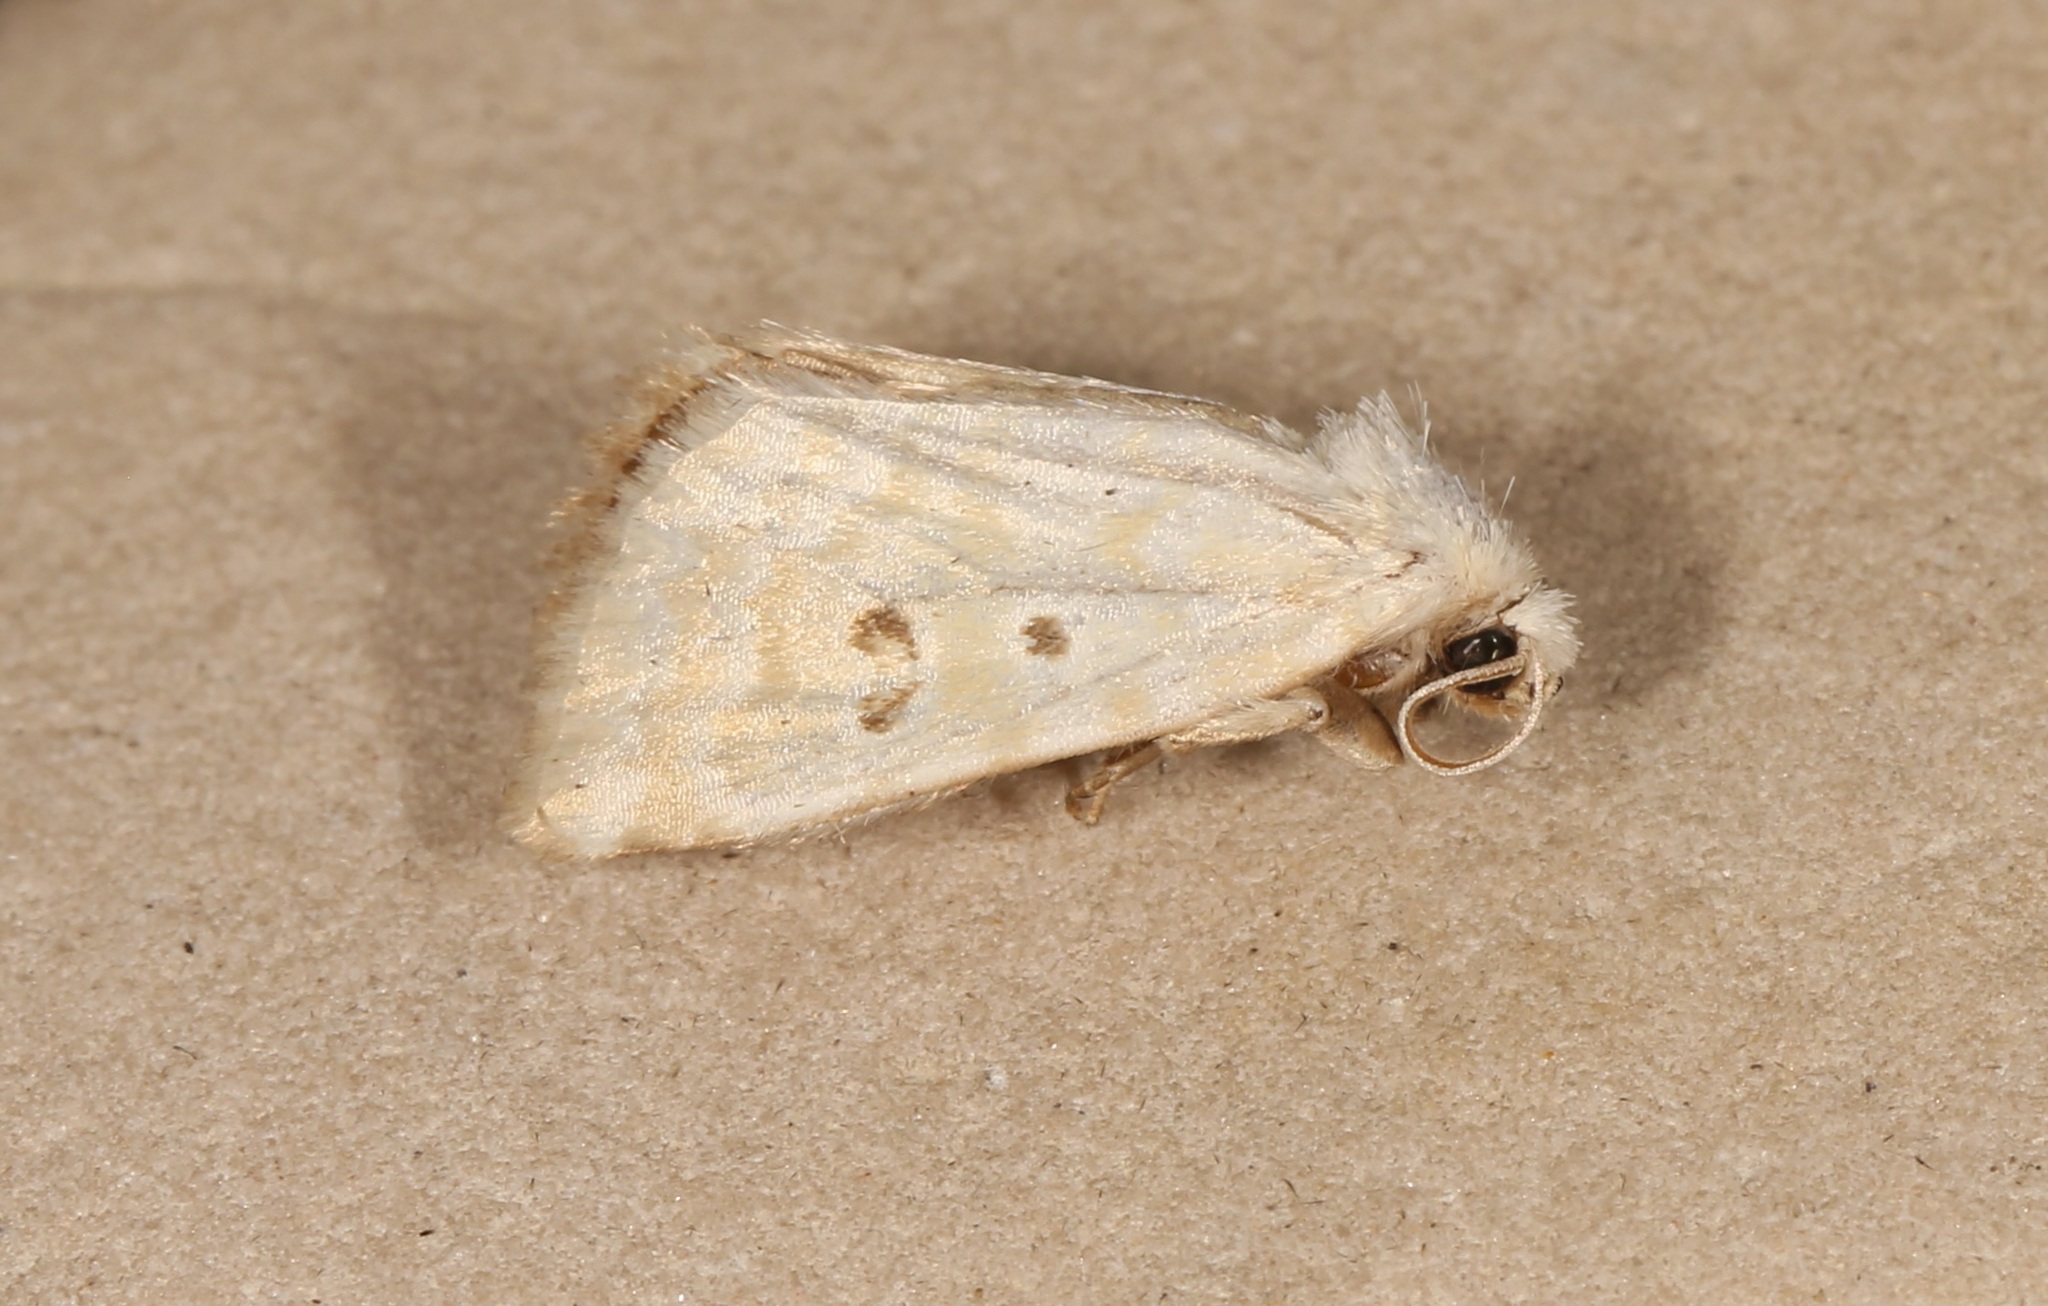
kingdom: Animalia
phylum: Arthropoda
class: Insecta
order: Lepidoptera
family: Noctuidae
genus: Lythrodes
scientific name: Lythrodes tripuncta
